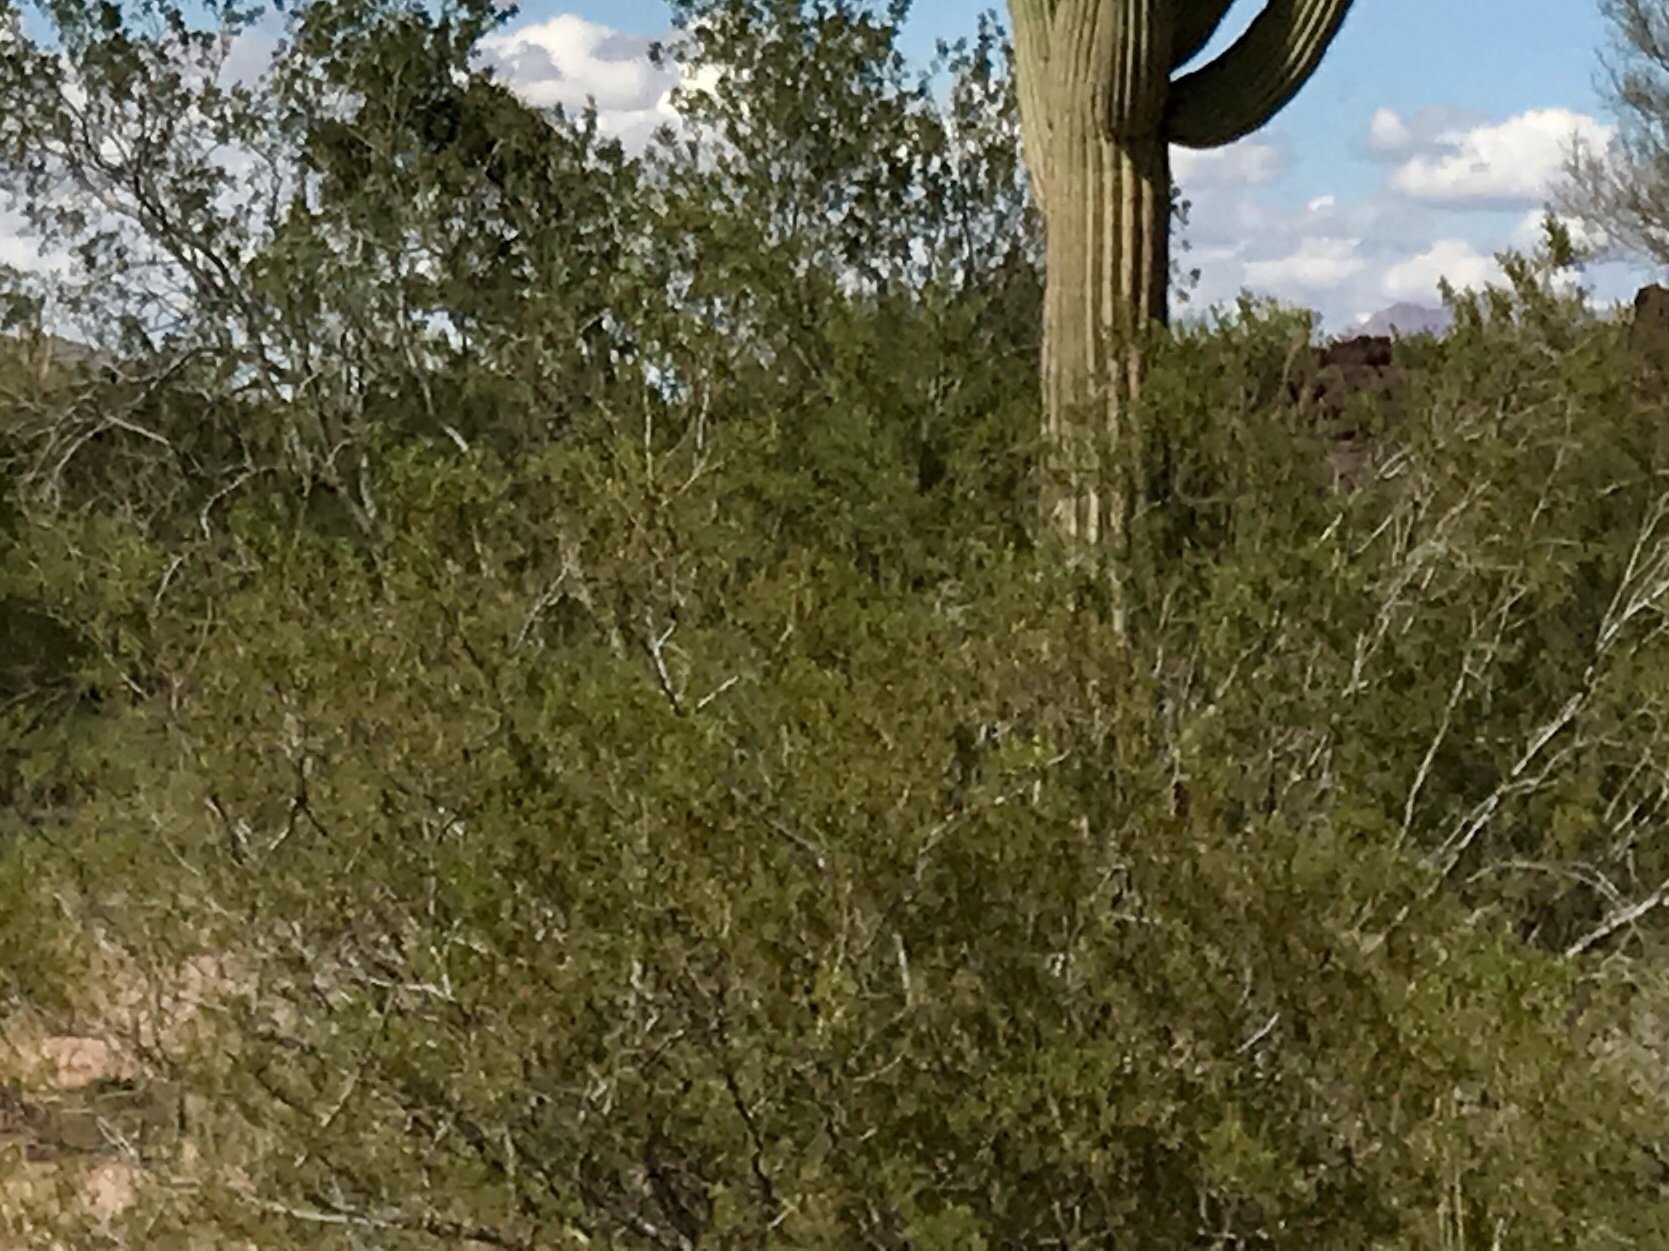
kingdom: Plantae
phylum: Tracheophyta
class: Magnoliopsida
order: Zygophyllales
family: Zygophyllaceae
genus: Larrea
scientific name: Larrea tridentata
